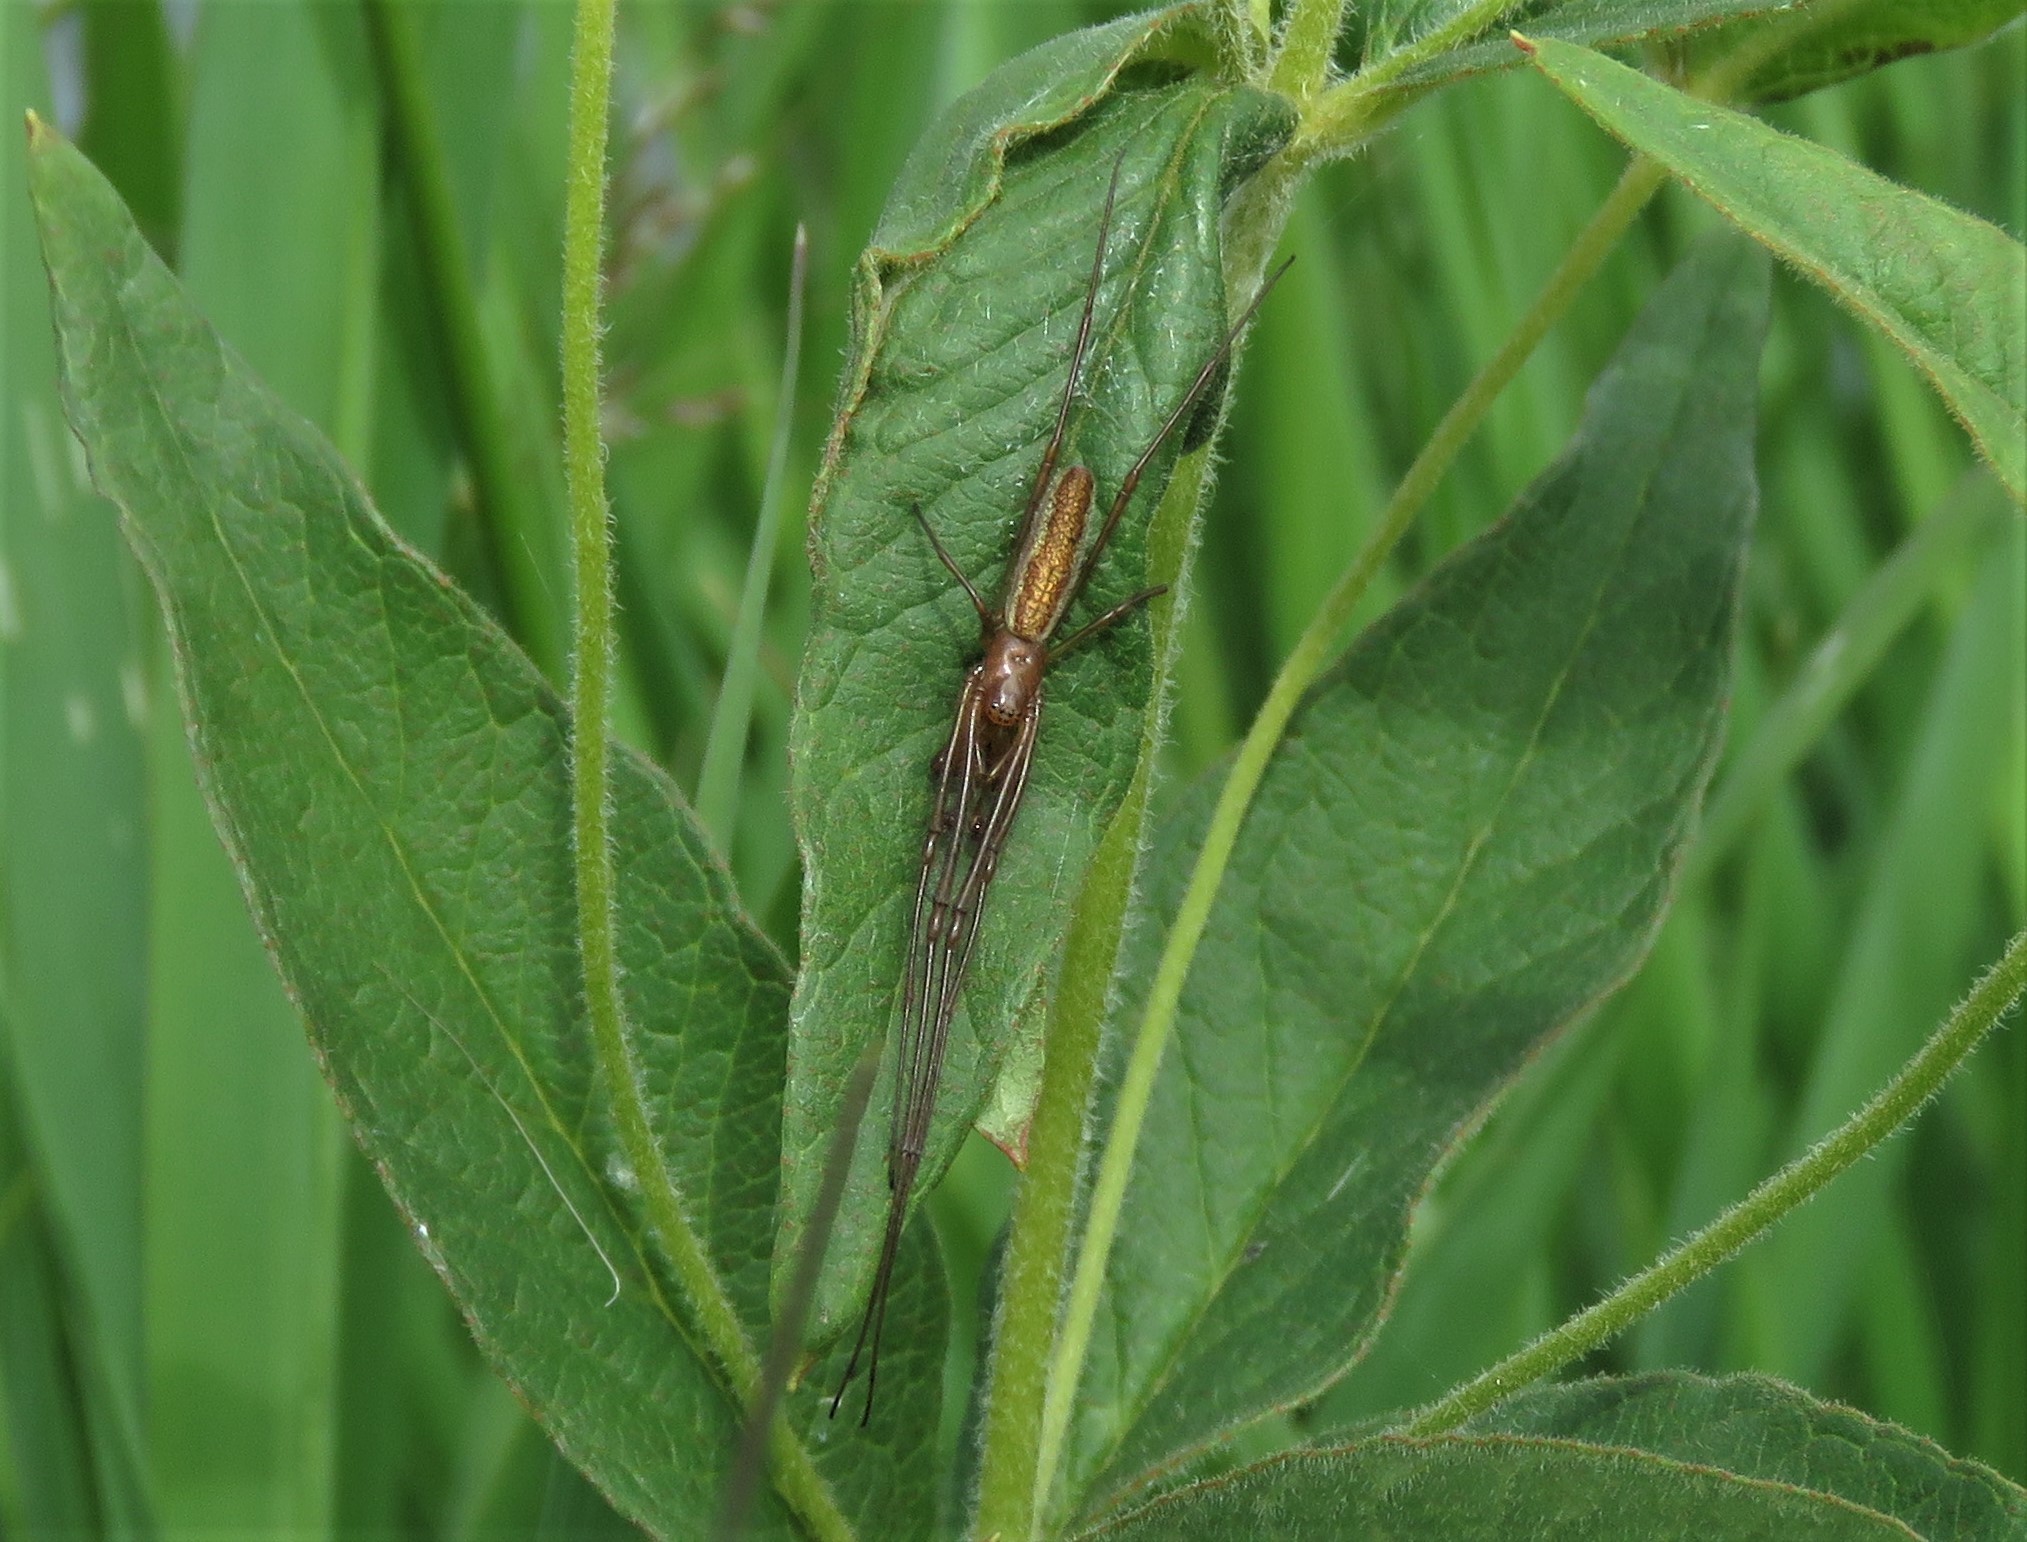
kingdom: Animalia
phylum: Arthropoda
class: Arachnida
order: Araneae
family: Tetragnathidae
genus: Tetragnatha
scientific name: Tetragnatha striata
